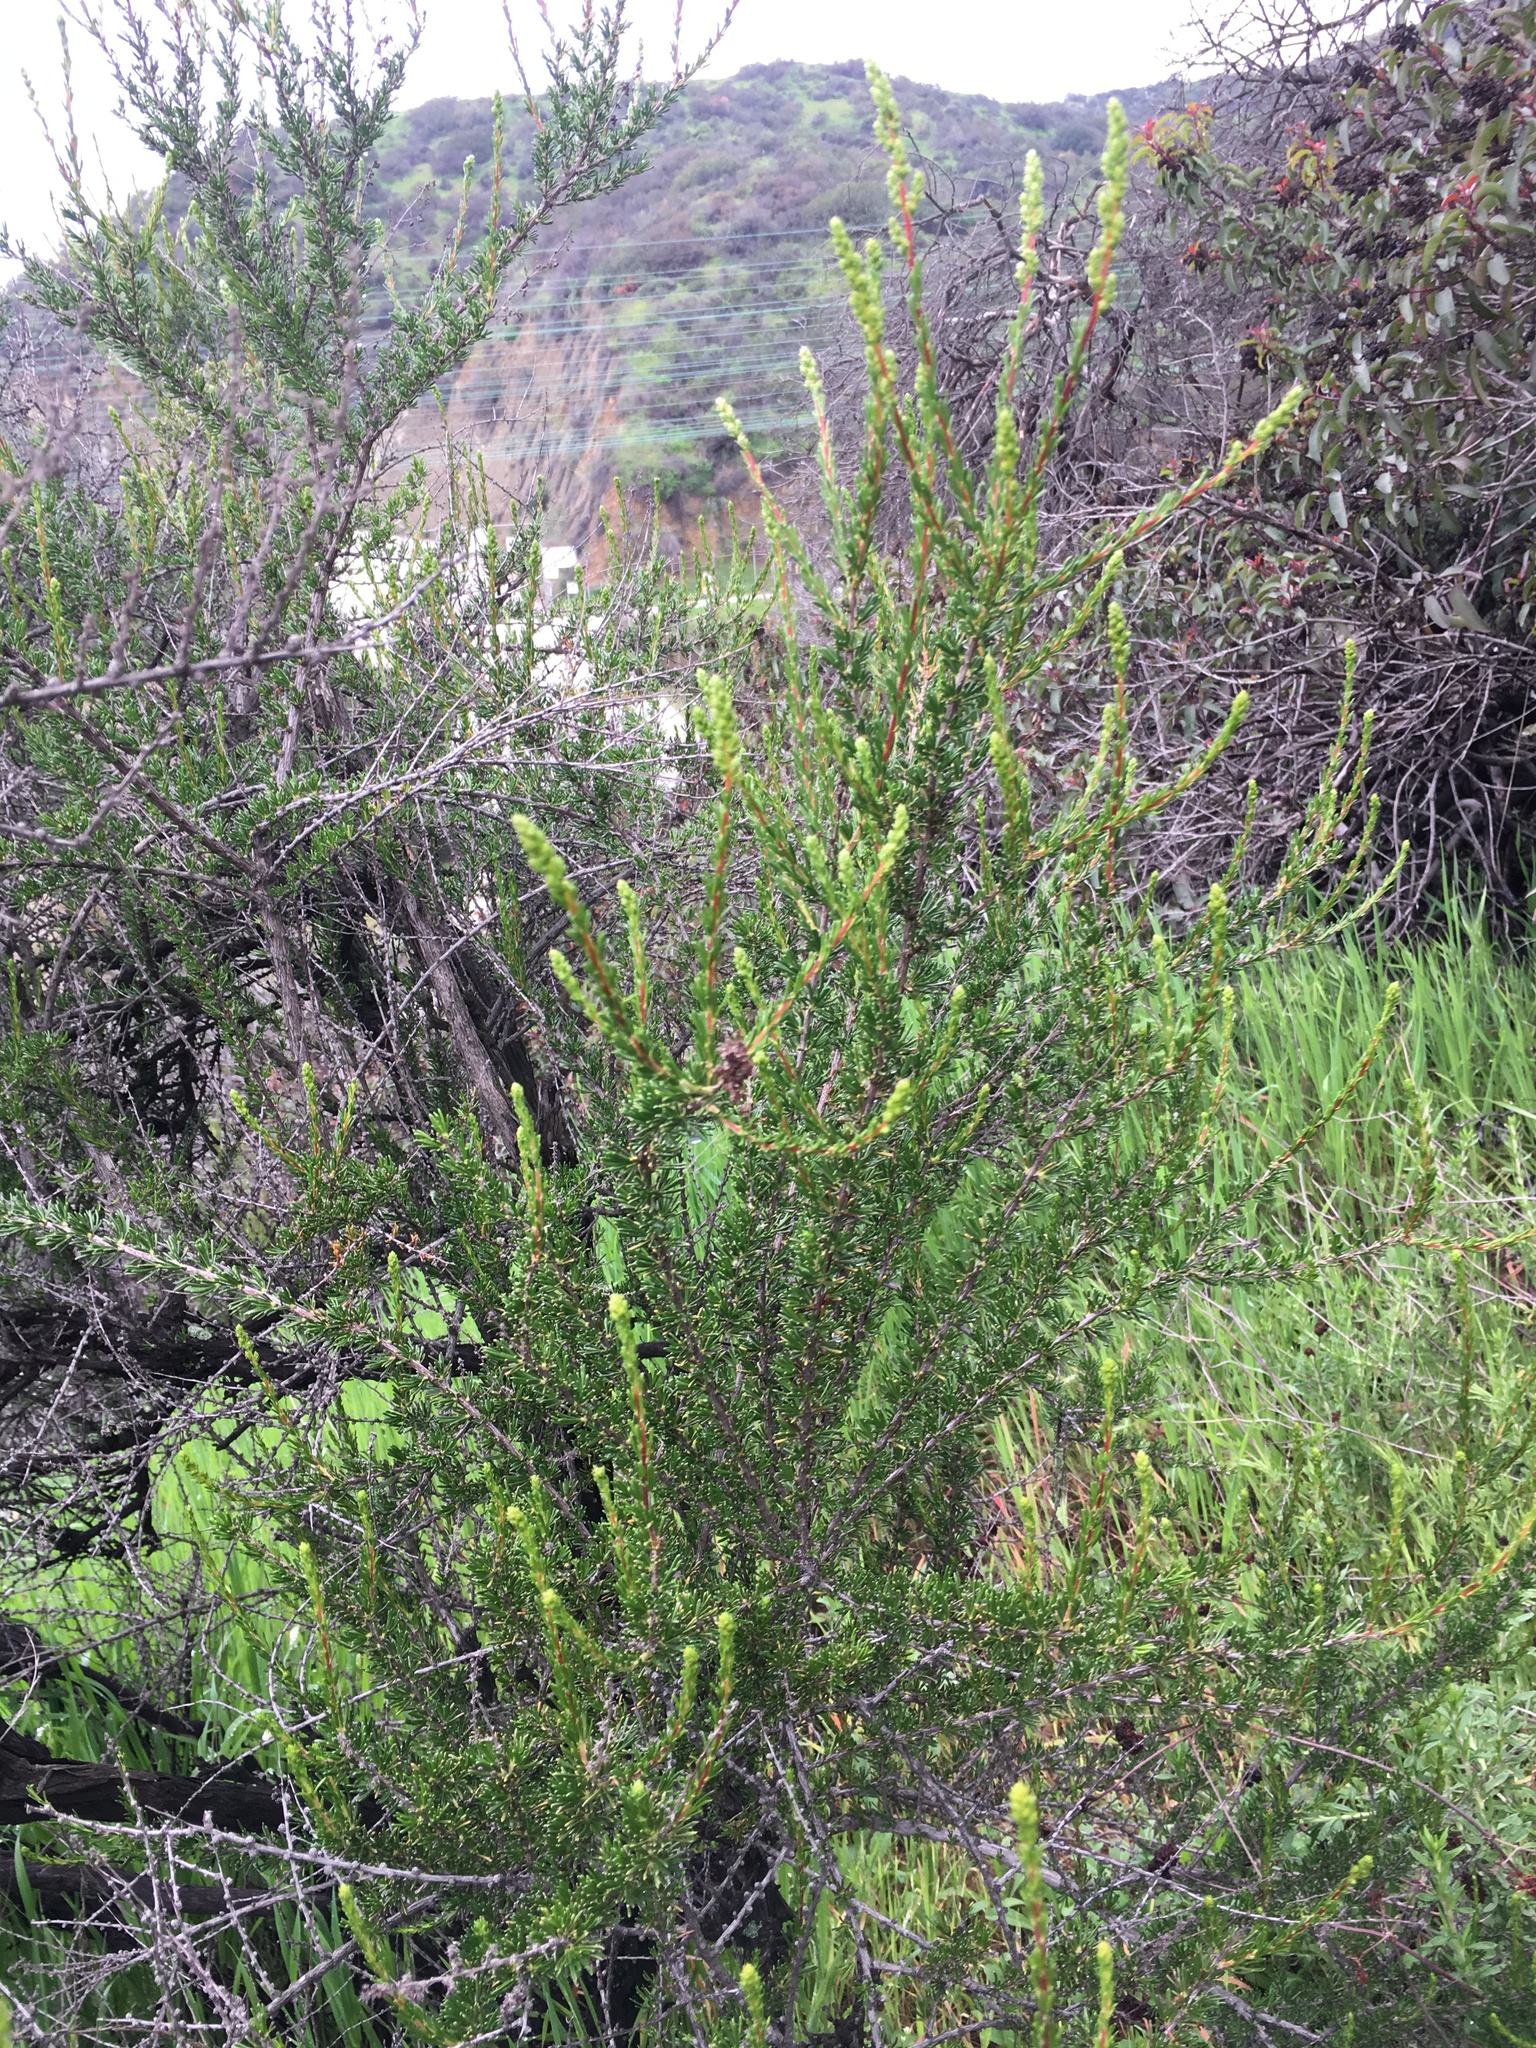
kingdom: Plantae
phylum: Tracheophyta
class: Magnoliopsida
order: Rosales
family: Rosaceae
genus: Adenostoma
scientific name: Adenostoma fasciculatum
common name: Chamise
